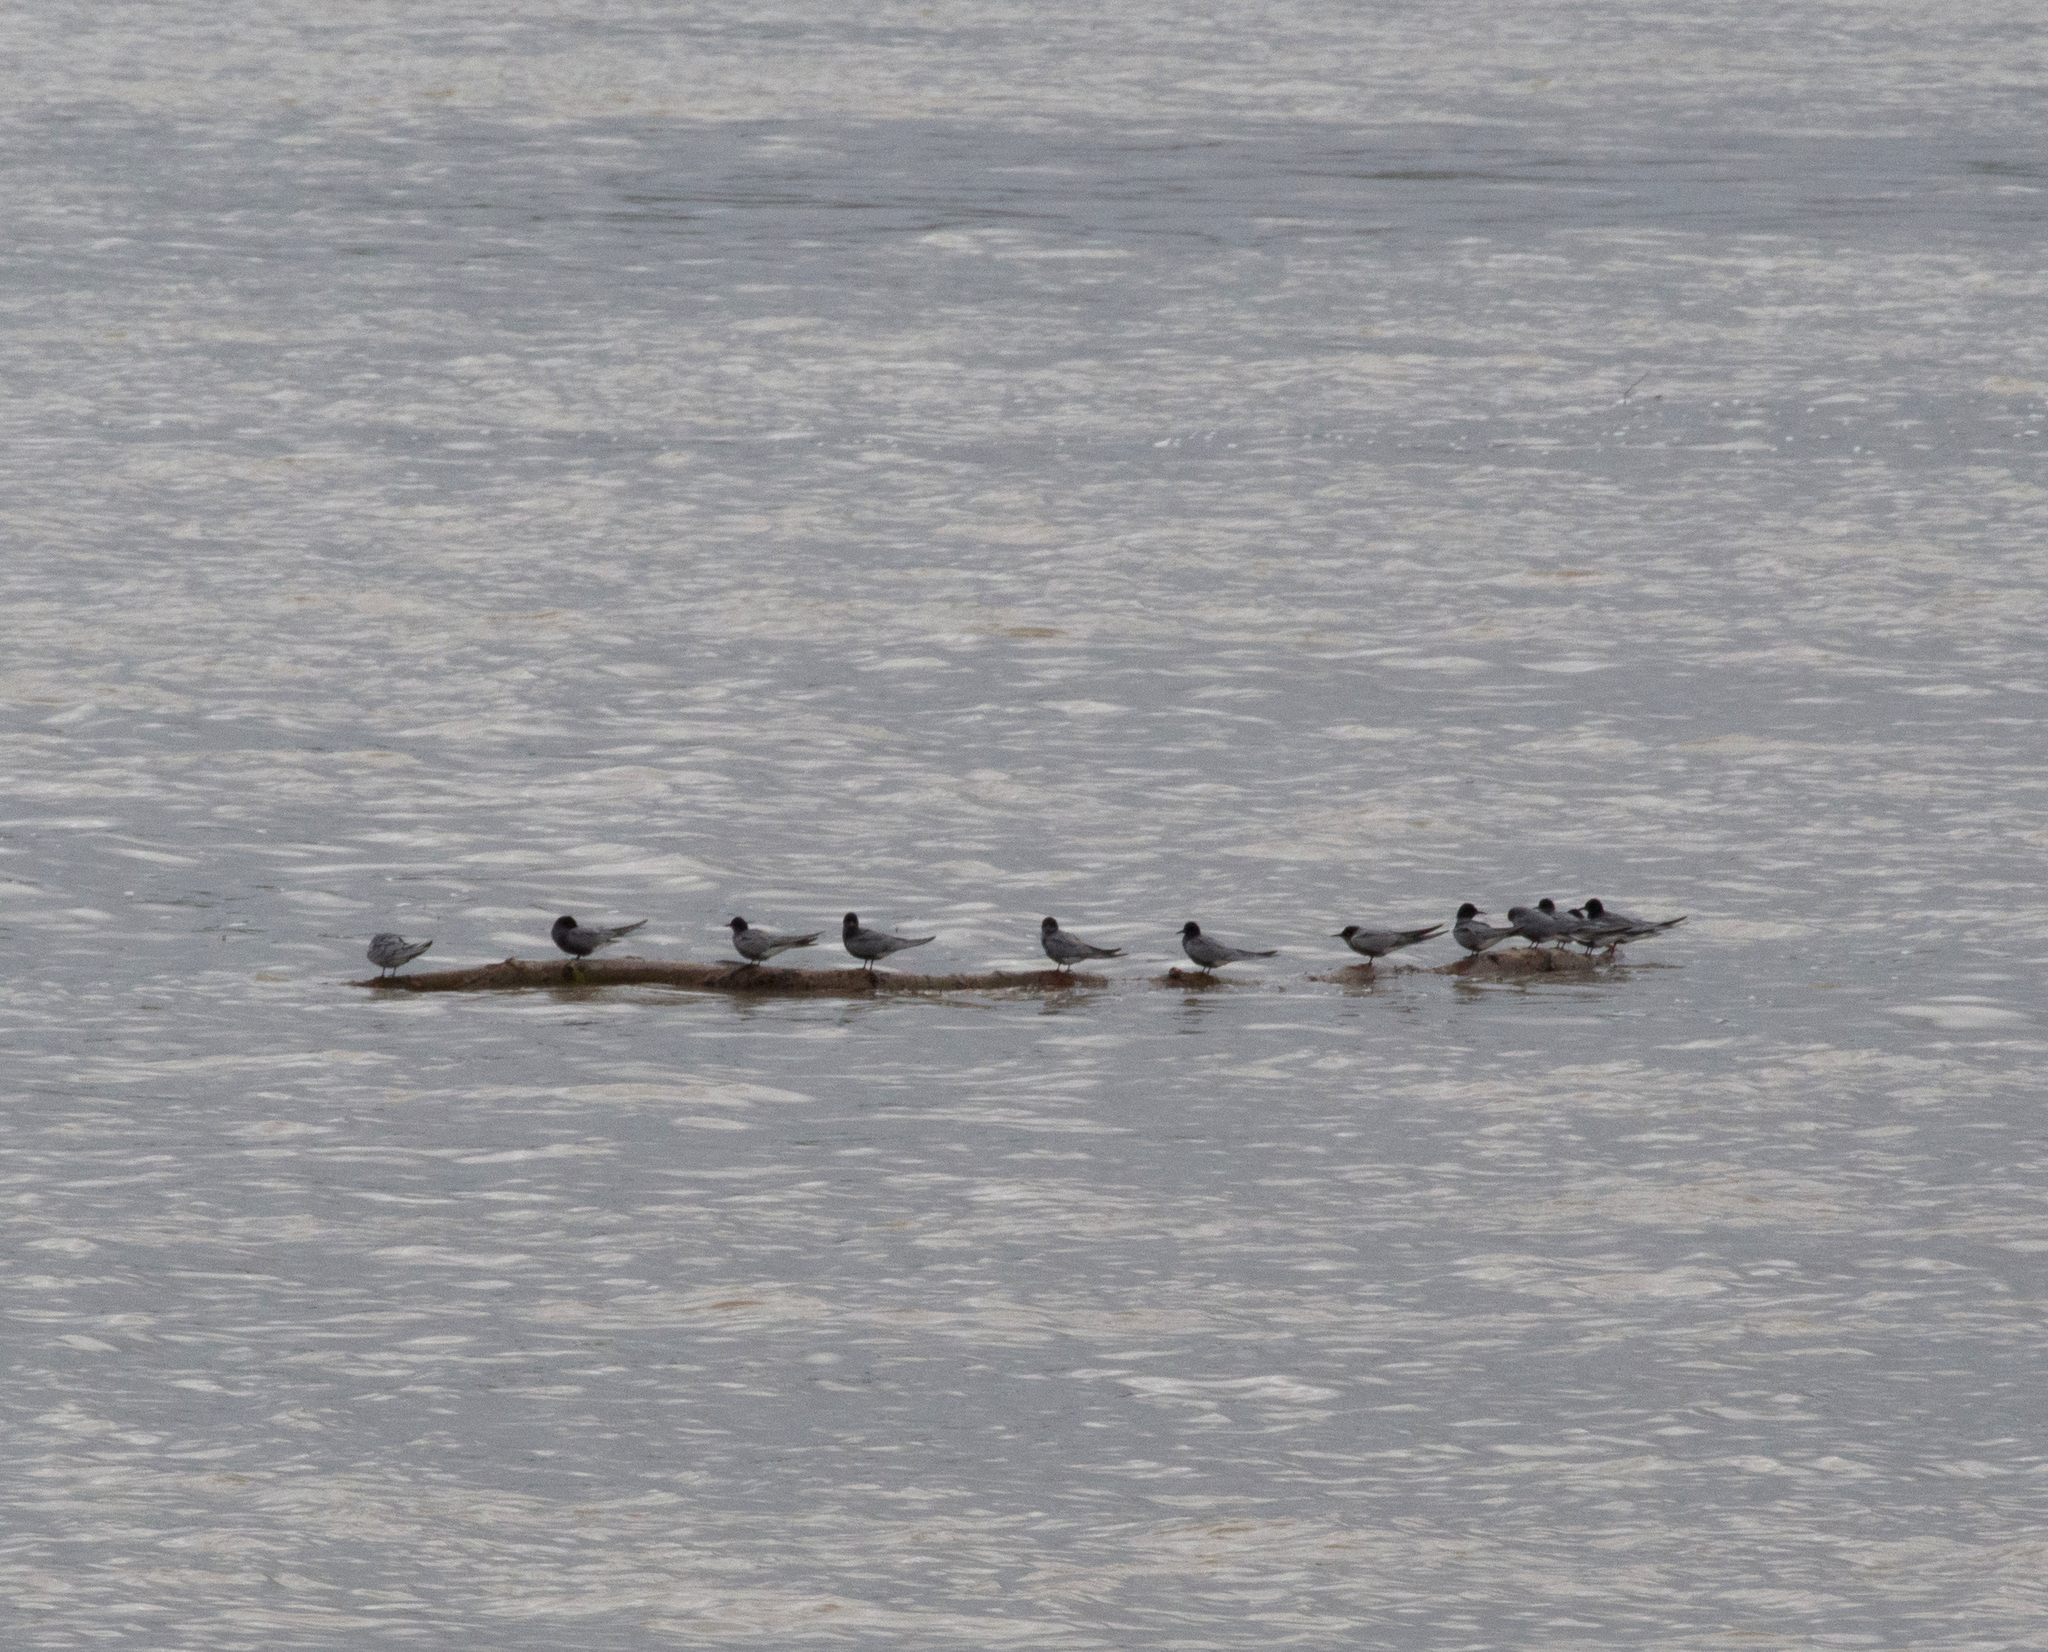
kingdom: Animalia
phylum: Chordata
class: Aves
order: Charadriiformes
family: Laridae
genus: Chlidonias
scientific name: Chlidonias niger
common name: Black tern
